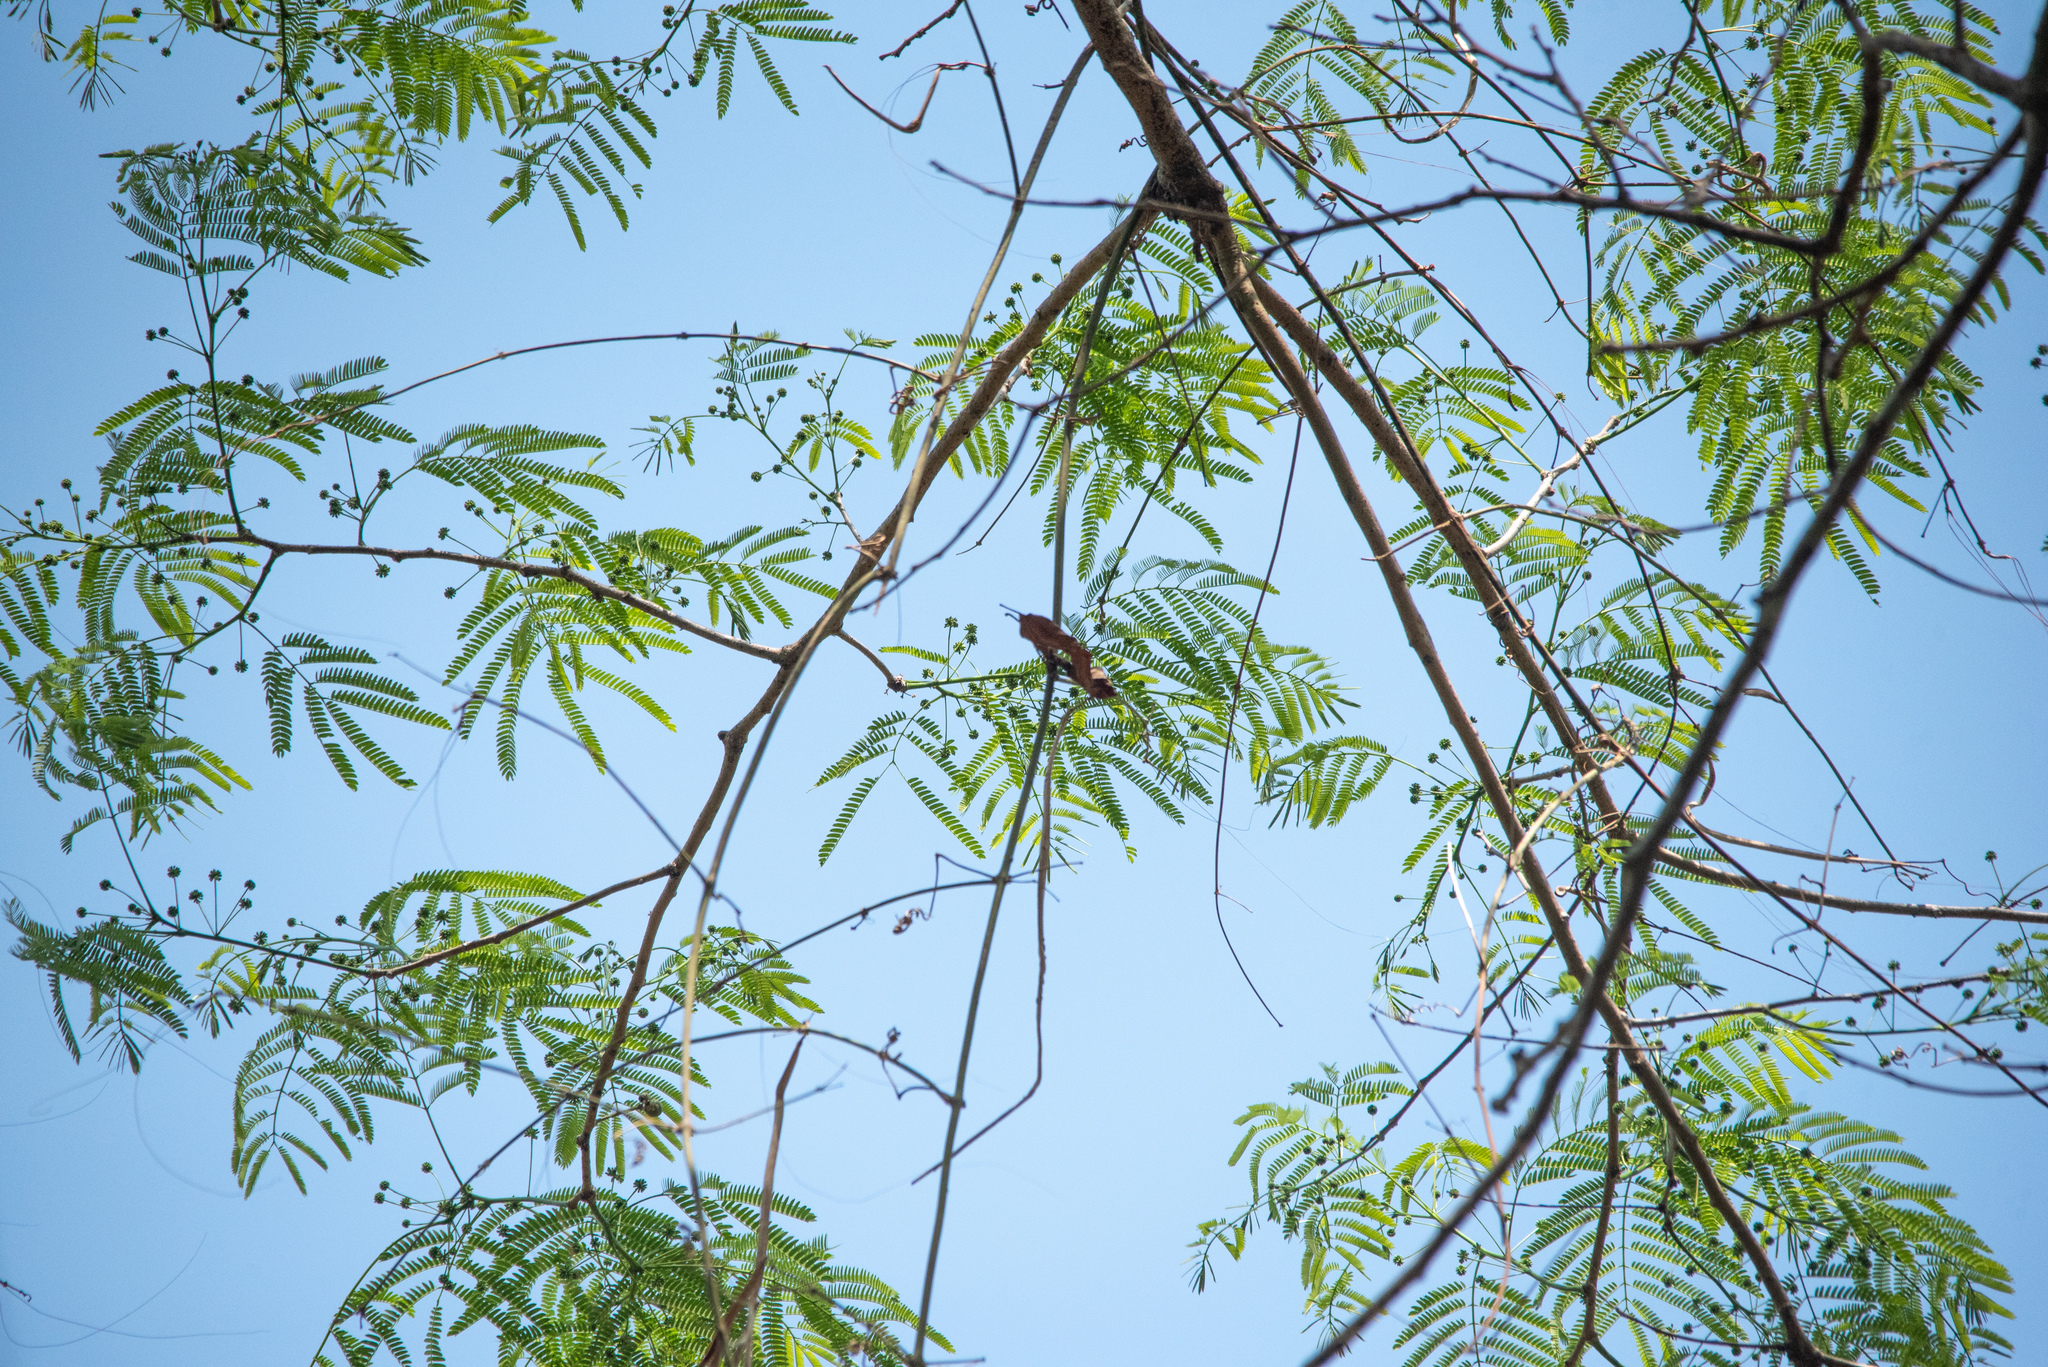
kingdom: Plantae
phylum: Tracheophyta
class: Magnoliopsida
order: Fabales
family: Fabaceae
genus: Enterolobium
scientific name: Enterolobium cyclocarpum
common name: Ear tree
